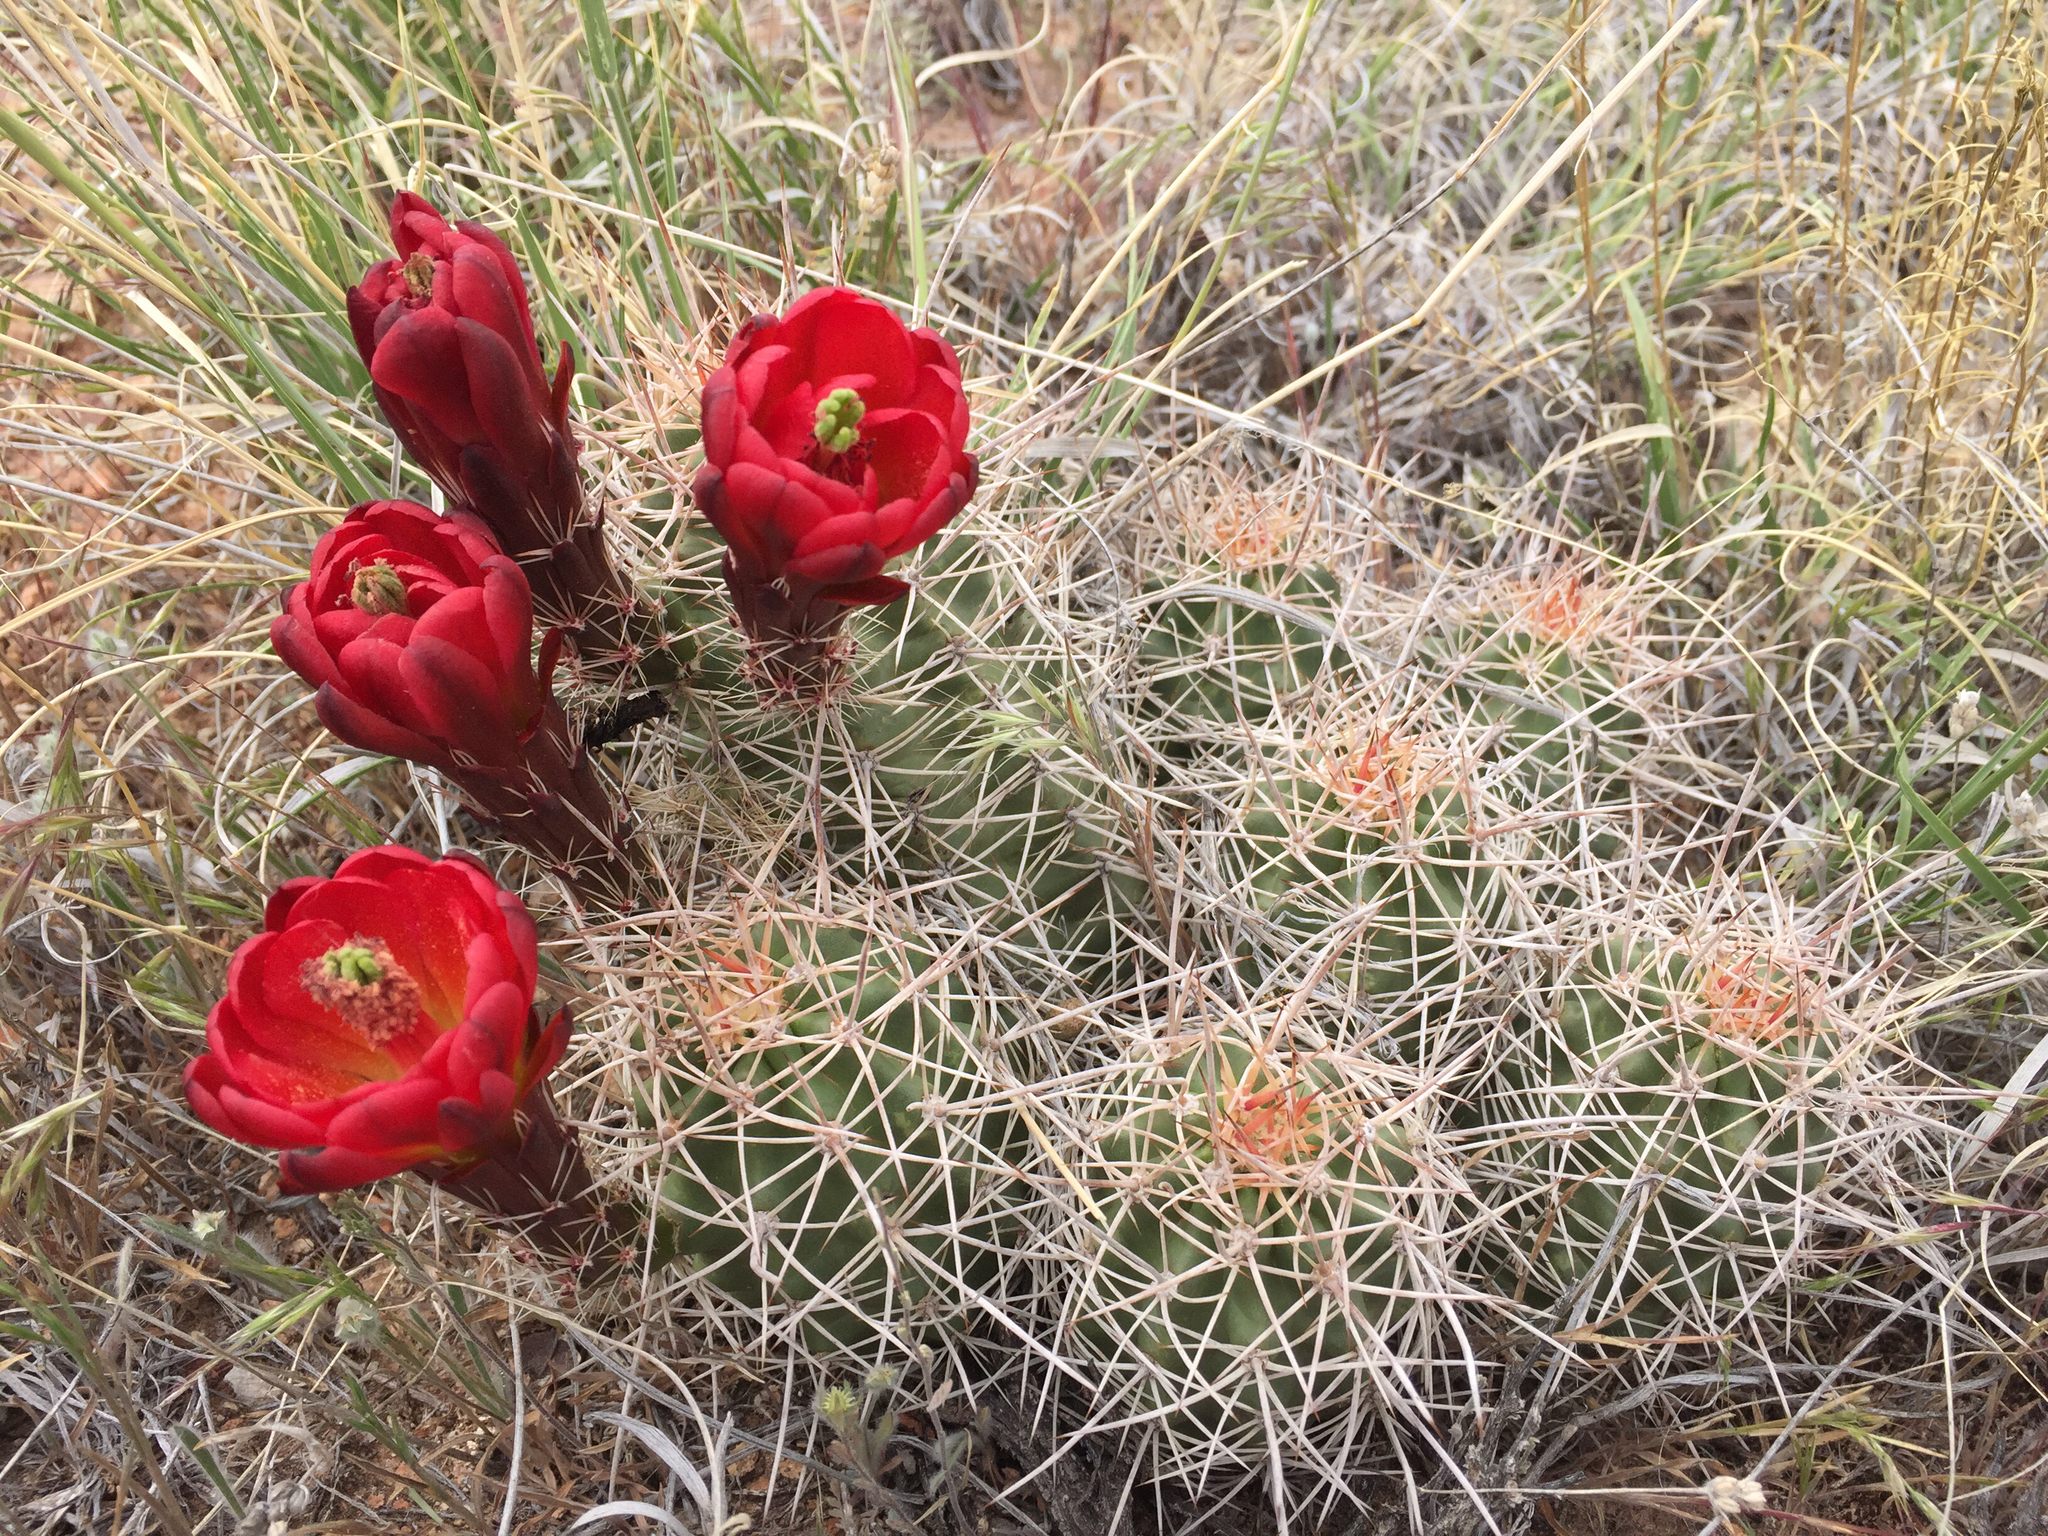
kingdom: Plantae
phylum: Tracheophyta
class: Magnoliopsida
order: Caryophyllales
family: Cactaceae
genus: Echinocereus
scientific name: Echinocereus triglochidiatus
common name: Claretcup hedgehog
